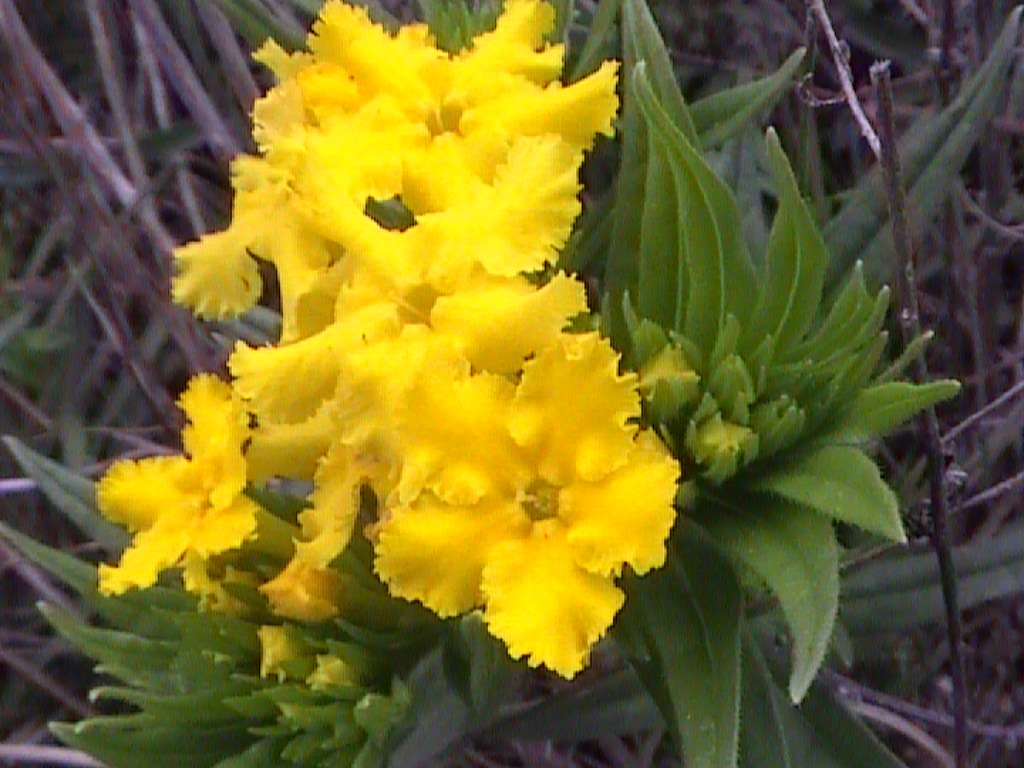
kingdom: Plantae
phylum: Tracheophyta
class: Magnoliopsida
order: Boraginales
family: Boraginaceae
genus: Lithospermum
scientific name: Lithospermum incisum
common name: Fringed gromwell
